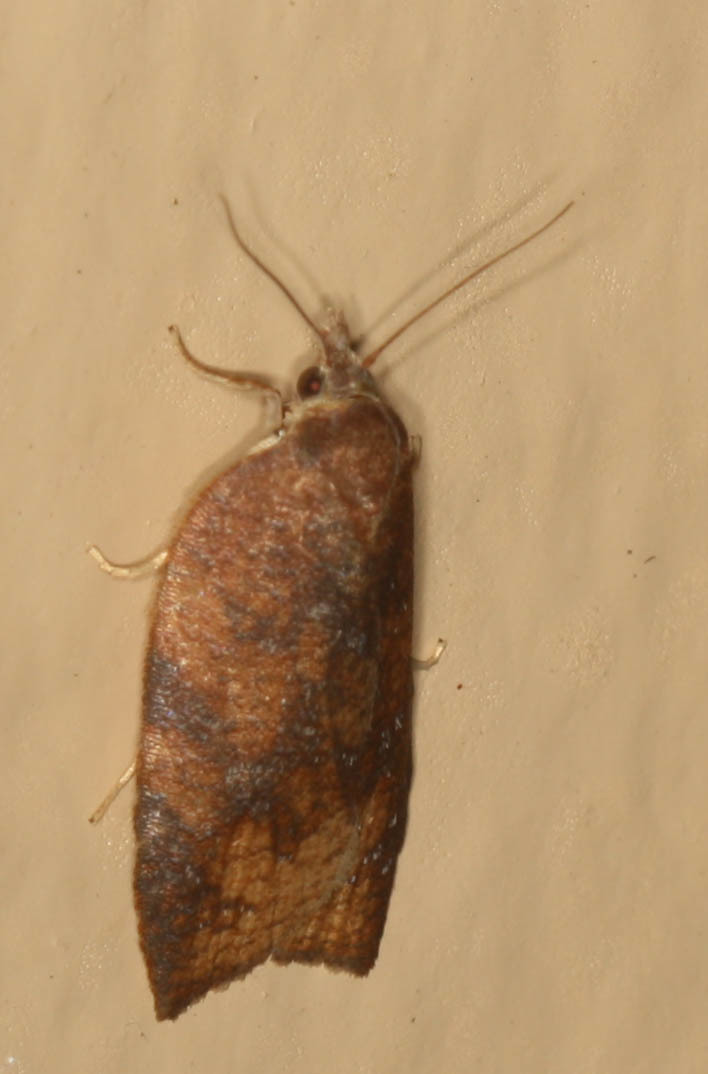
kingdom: Animalia
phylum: Arthropoda
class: Insecta
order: Lepidoptera
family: Tortricidae
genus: Amorbia
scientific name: Amorbia emigratella
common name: Mexican leafroller
